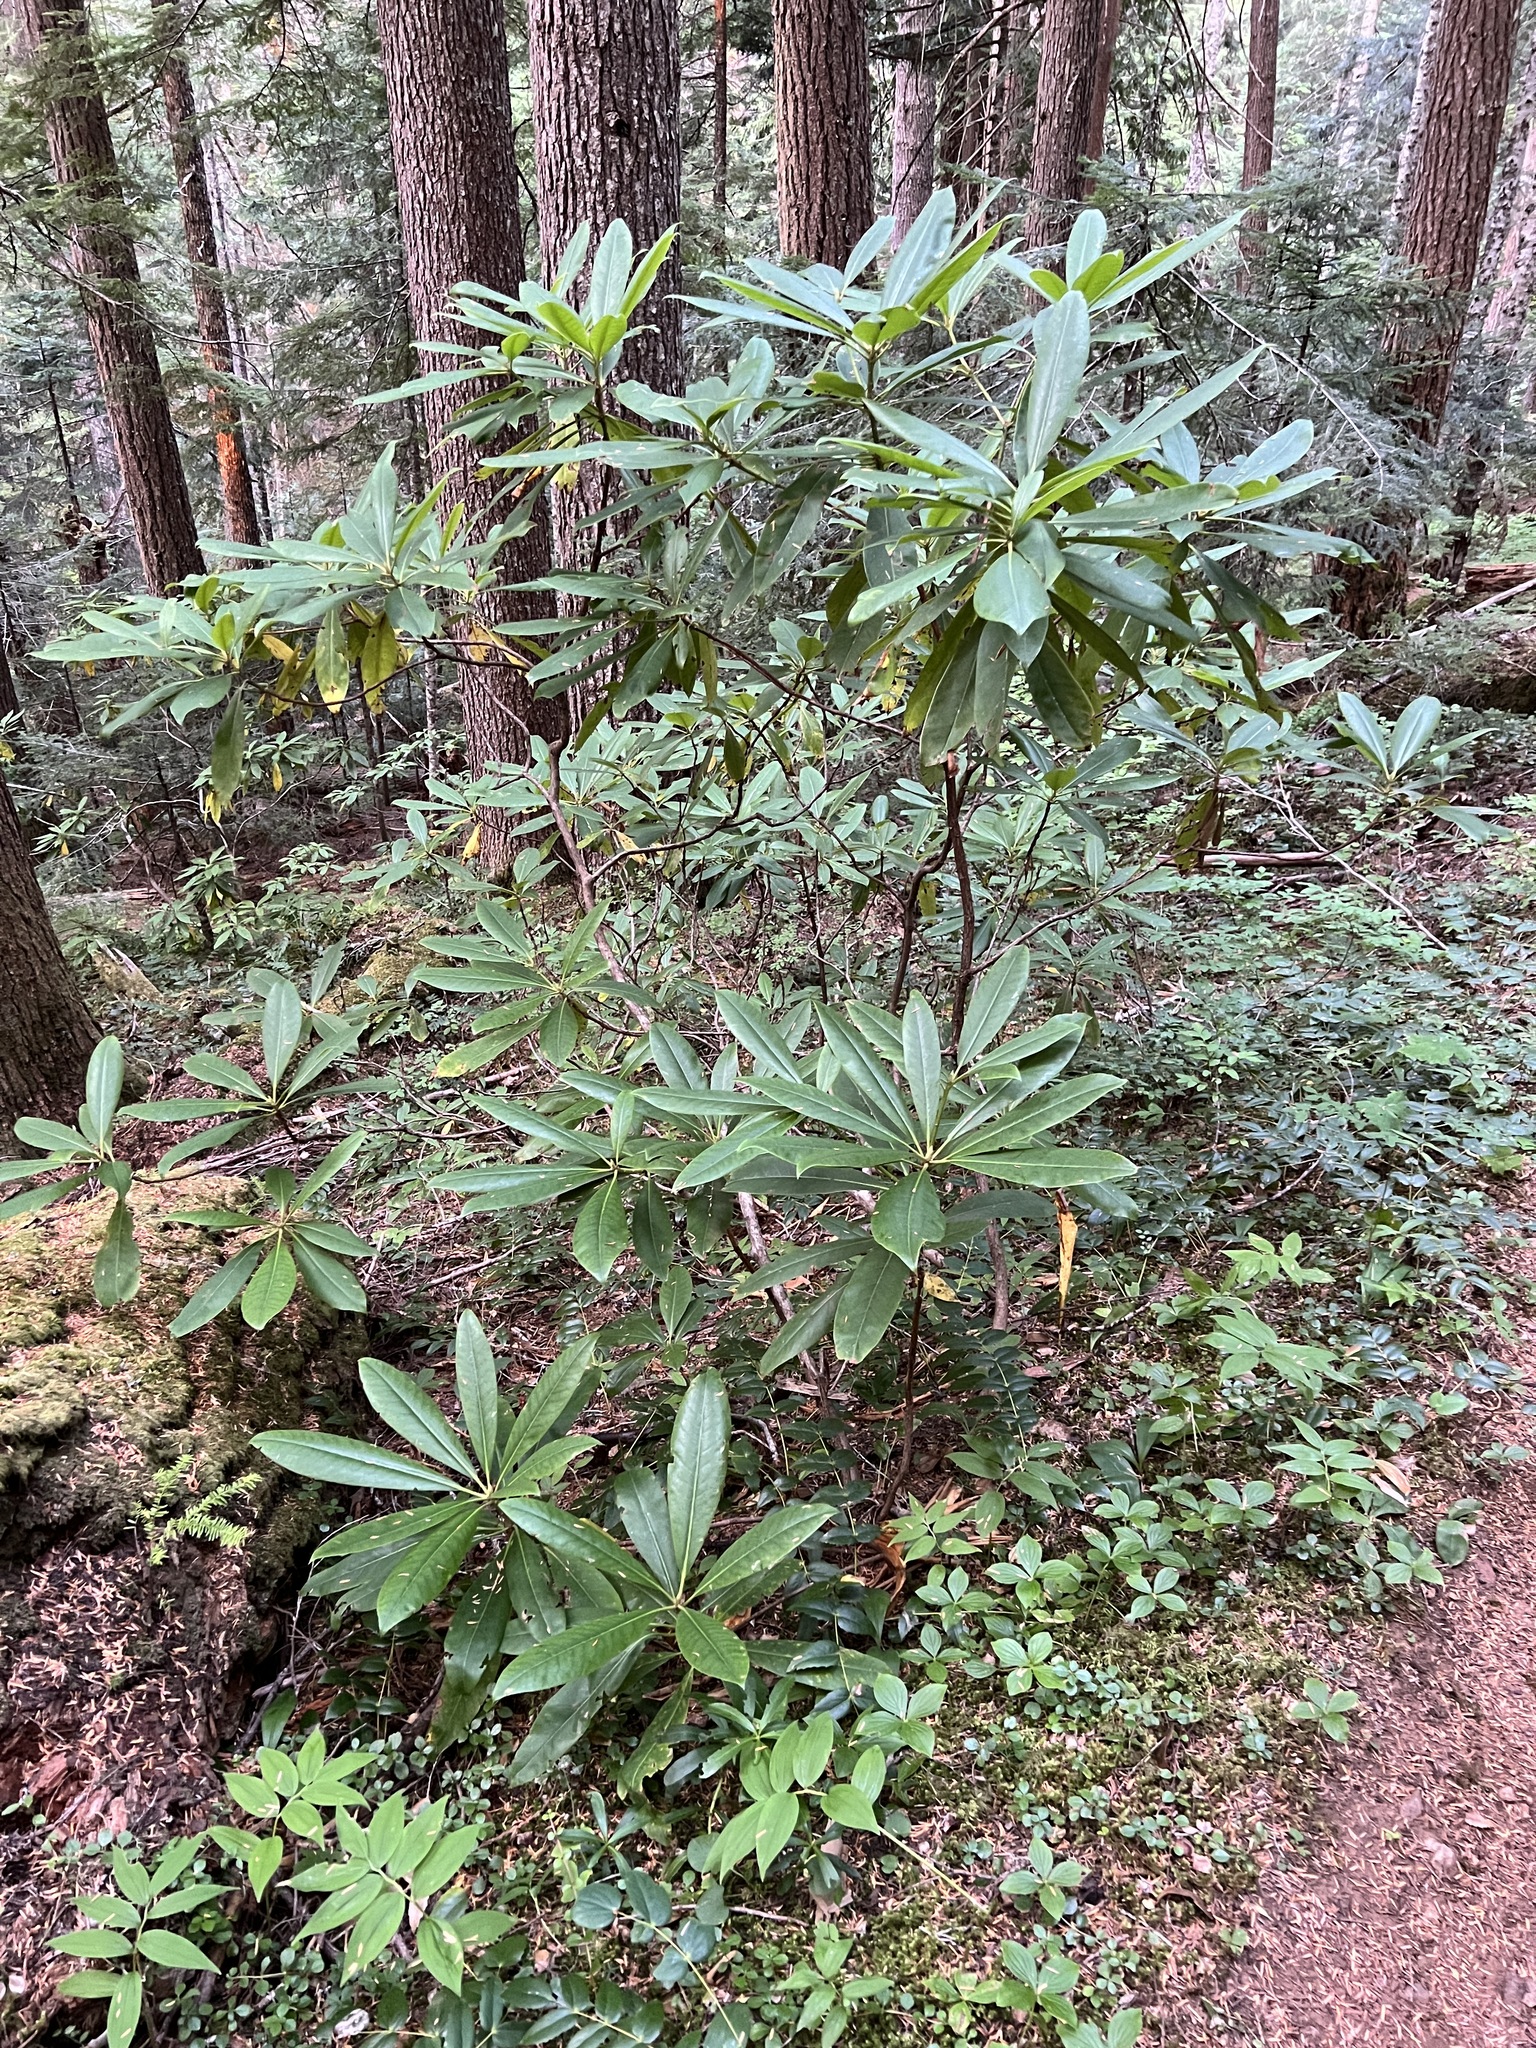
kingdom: Plantae
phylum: Tracheophyta
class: Magnoliopsida
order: Ericales
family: Ericaceae
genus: Rhododendron
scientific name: Rhododendron macrophyllum
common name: California rose bay
